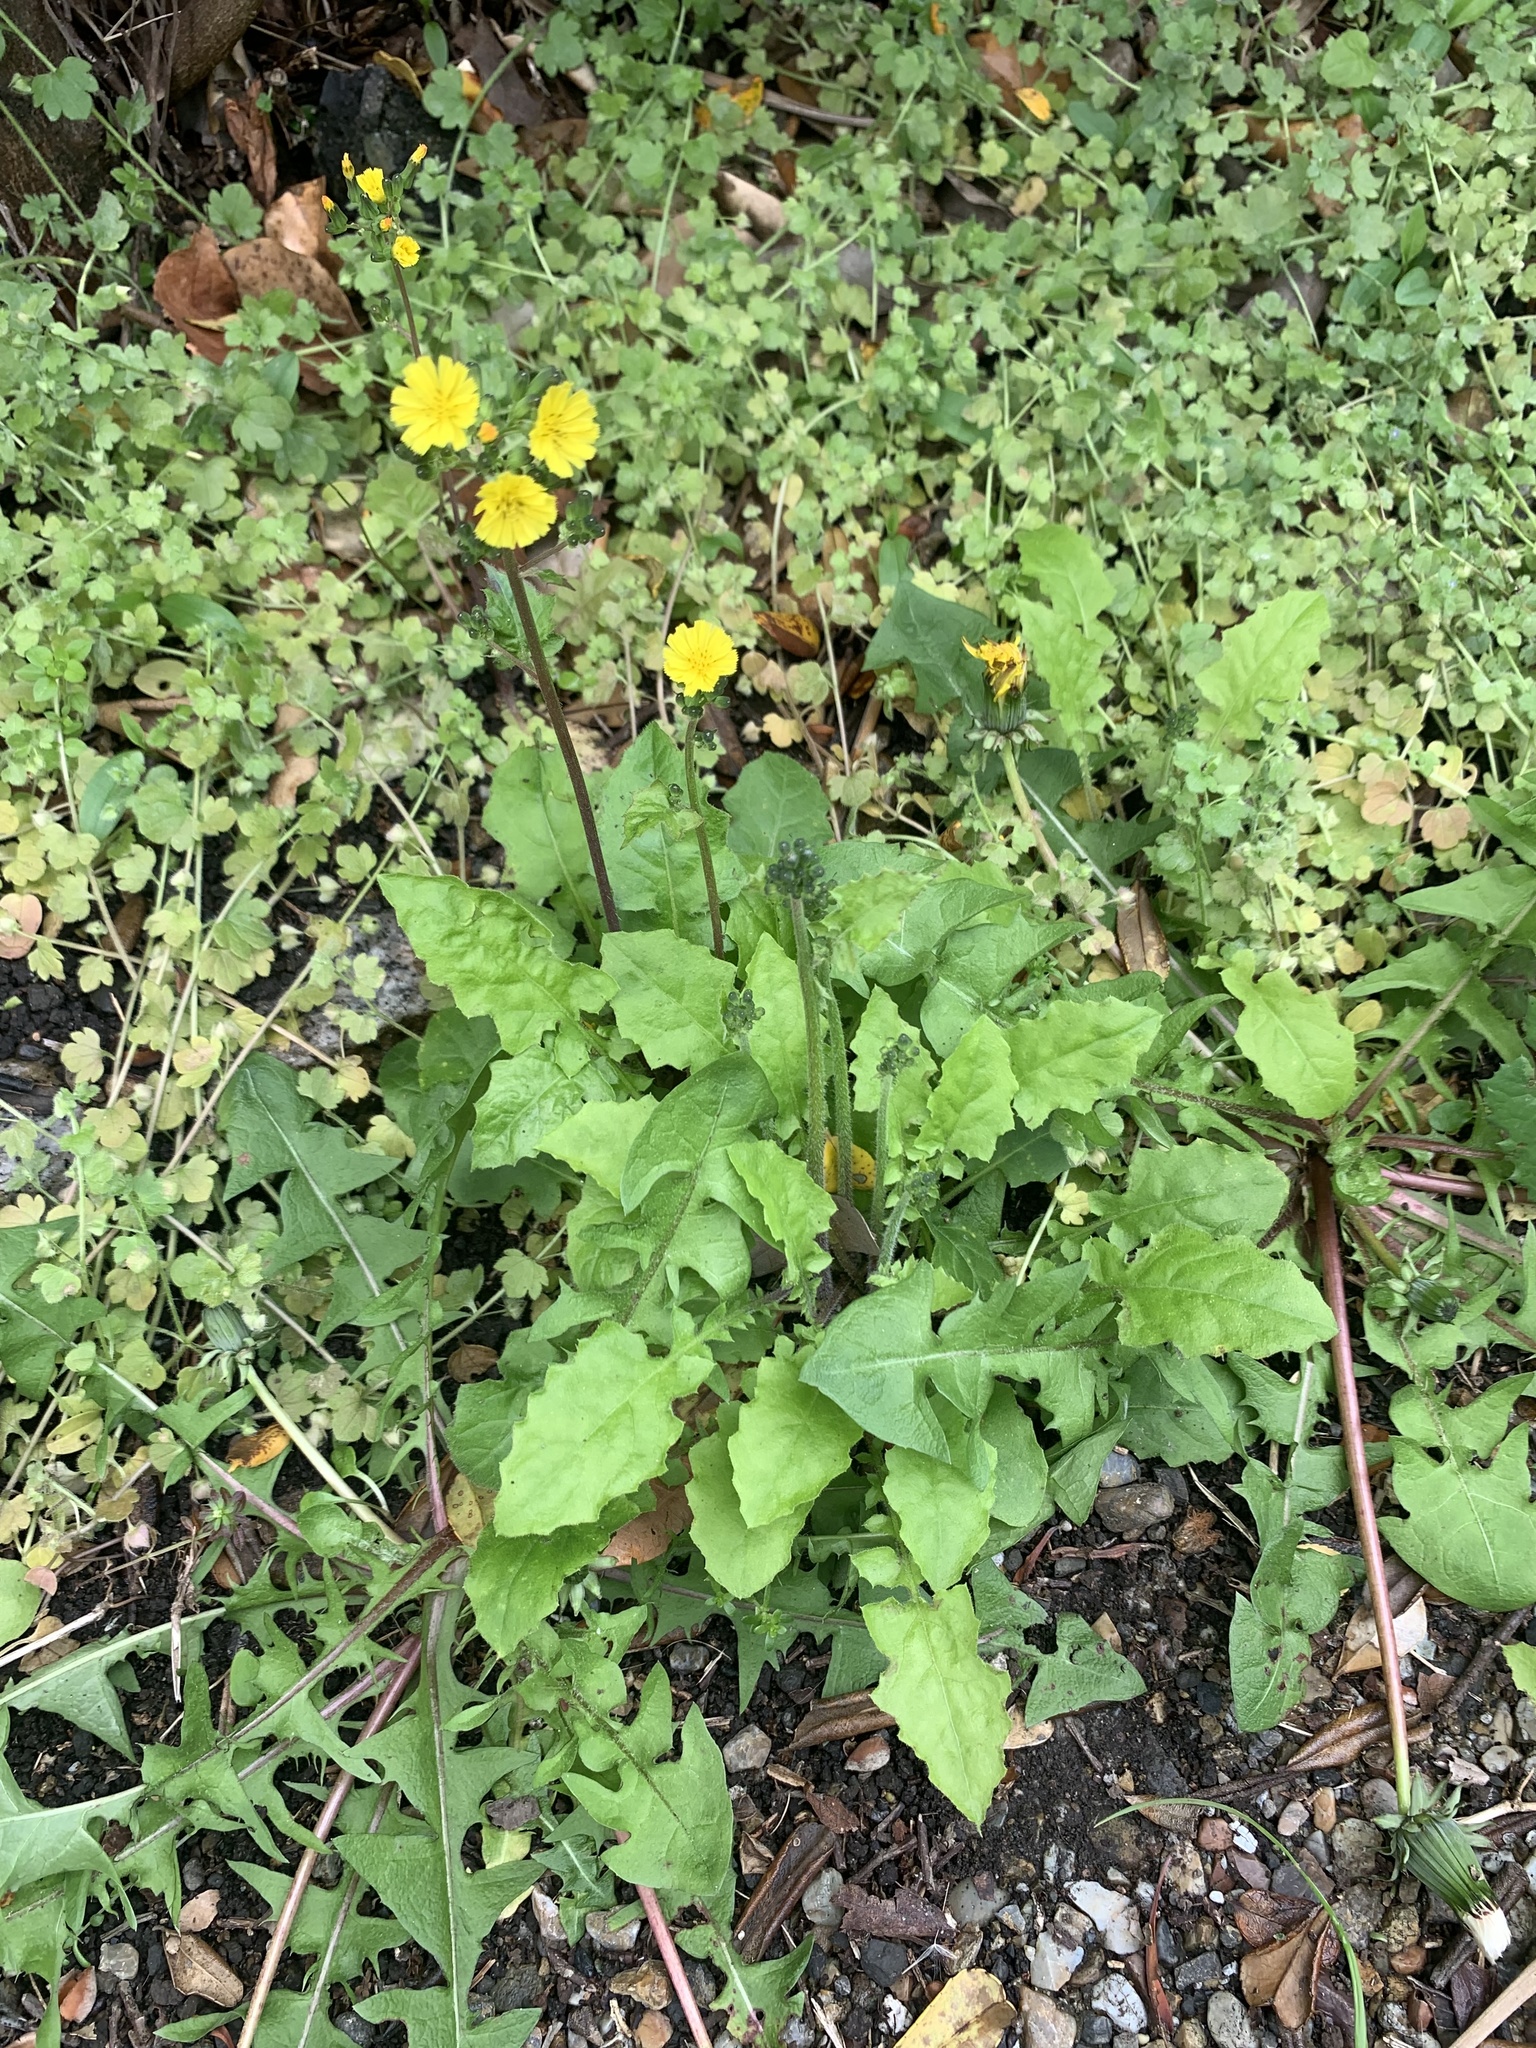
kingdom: Plantae
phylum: Tracheophyta
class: Magnoliopsida
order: Asterales
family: Asteraceae
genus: Youngia
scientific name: Youngia japonica
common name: Oriental false hawksbeard
